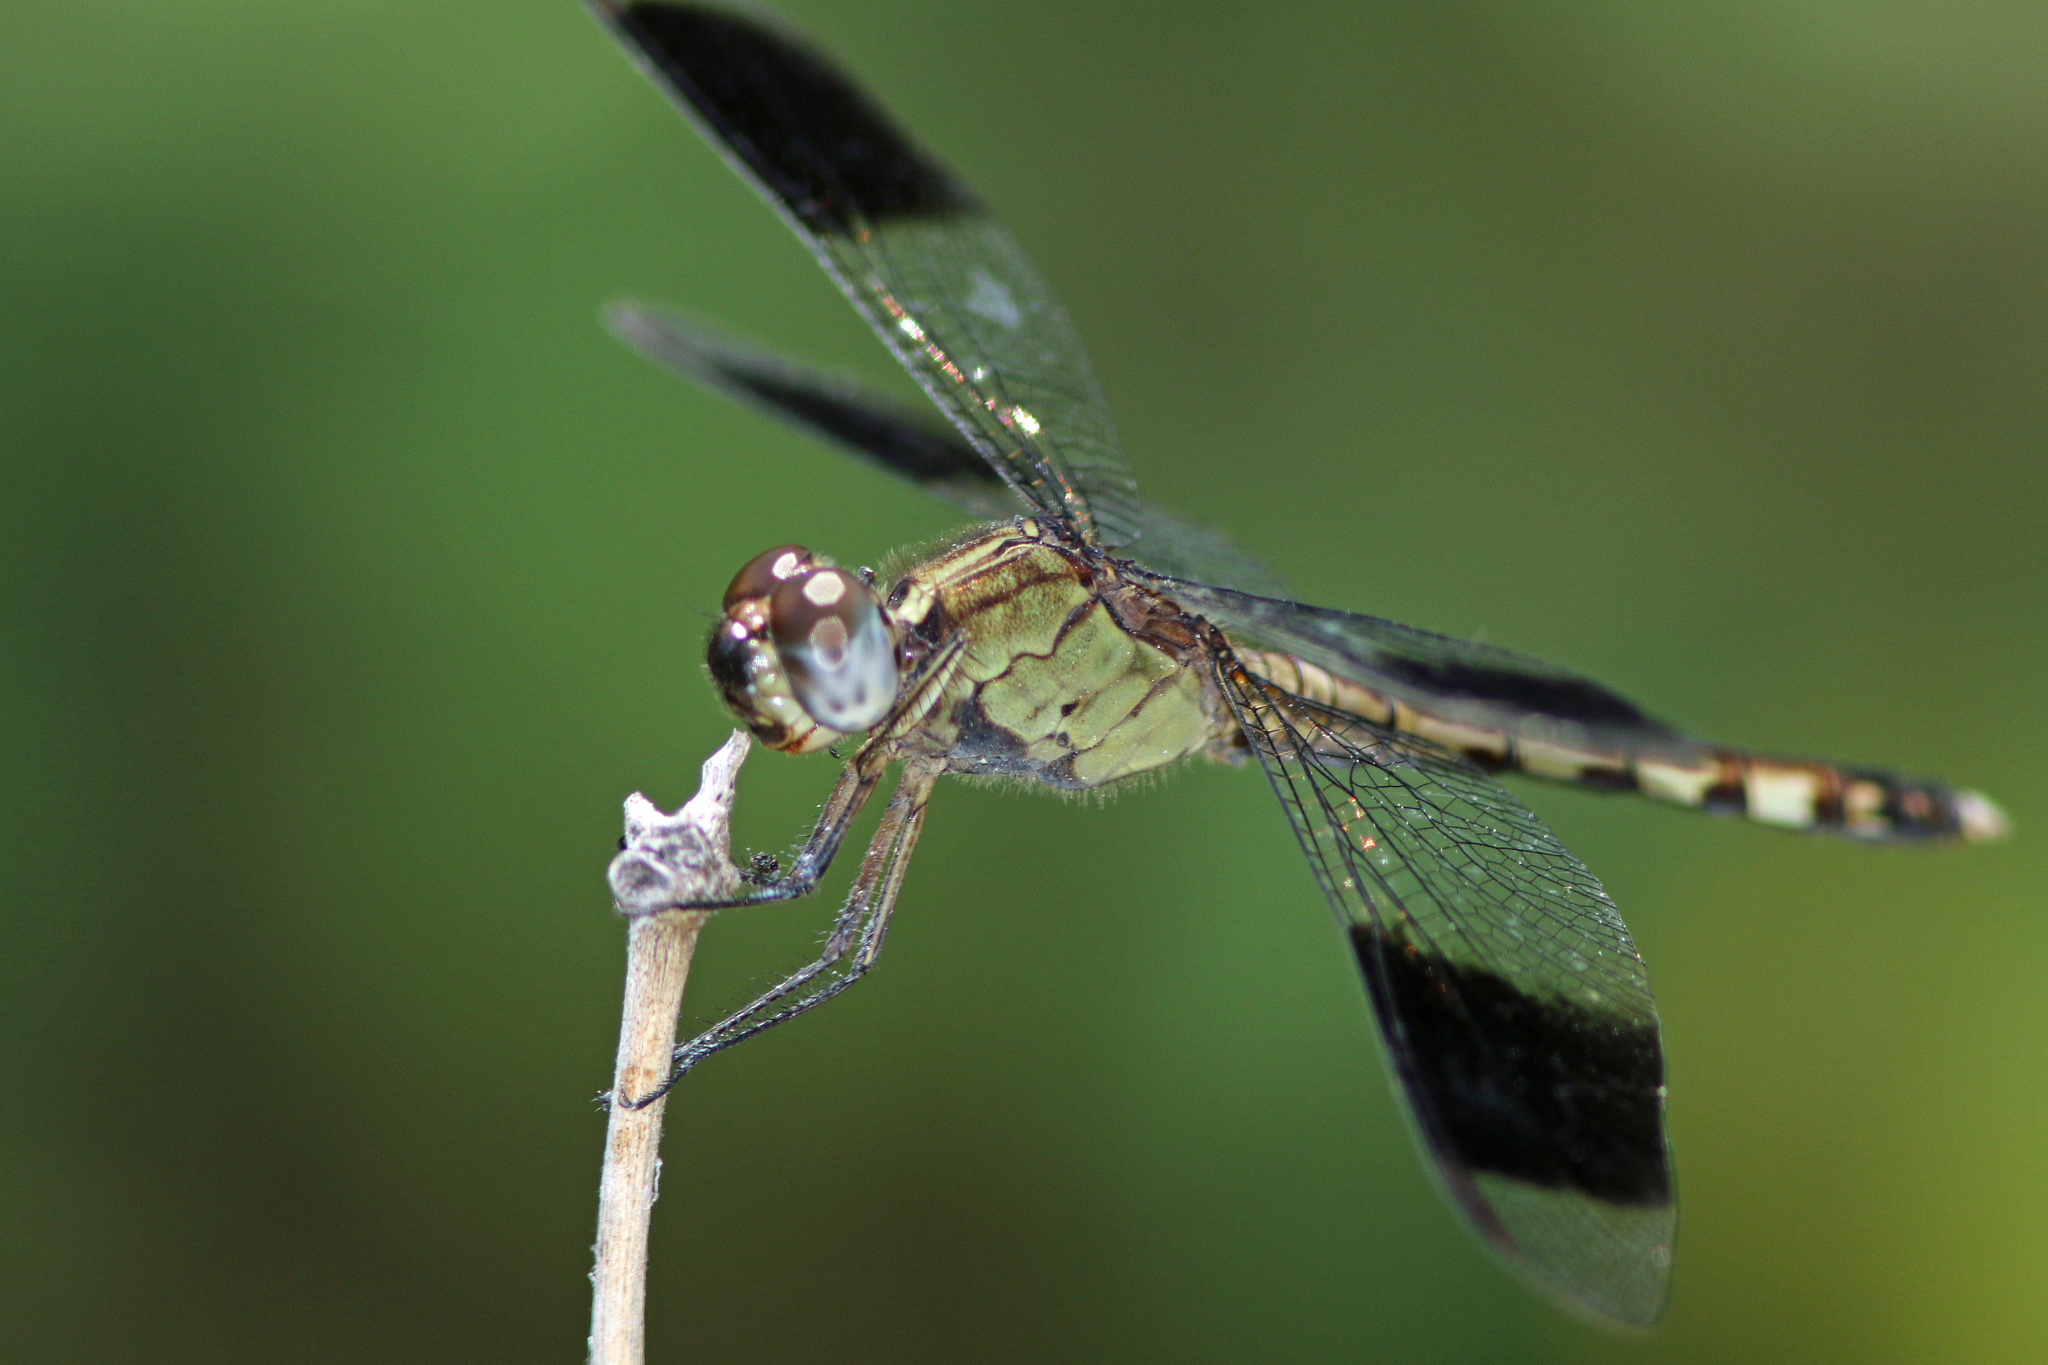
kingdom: Animalia
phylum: Arthropoda
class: Insecta
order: Odonata
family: Libellulidae
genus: Erythrodiplax
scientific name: Erythrodiplax umbrata
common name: Band-winged dragonlet
